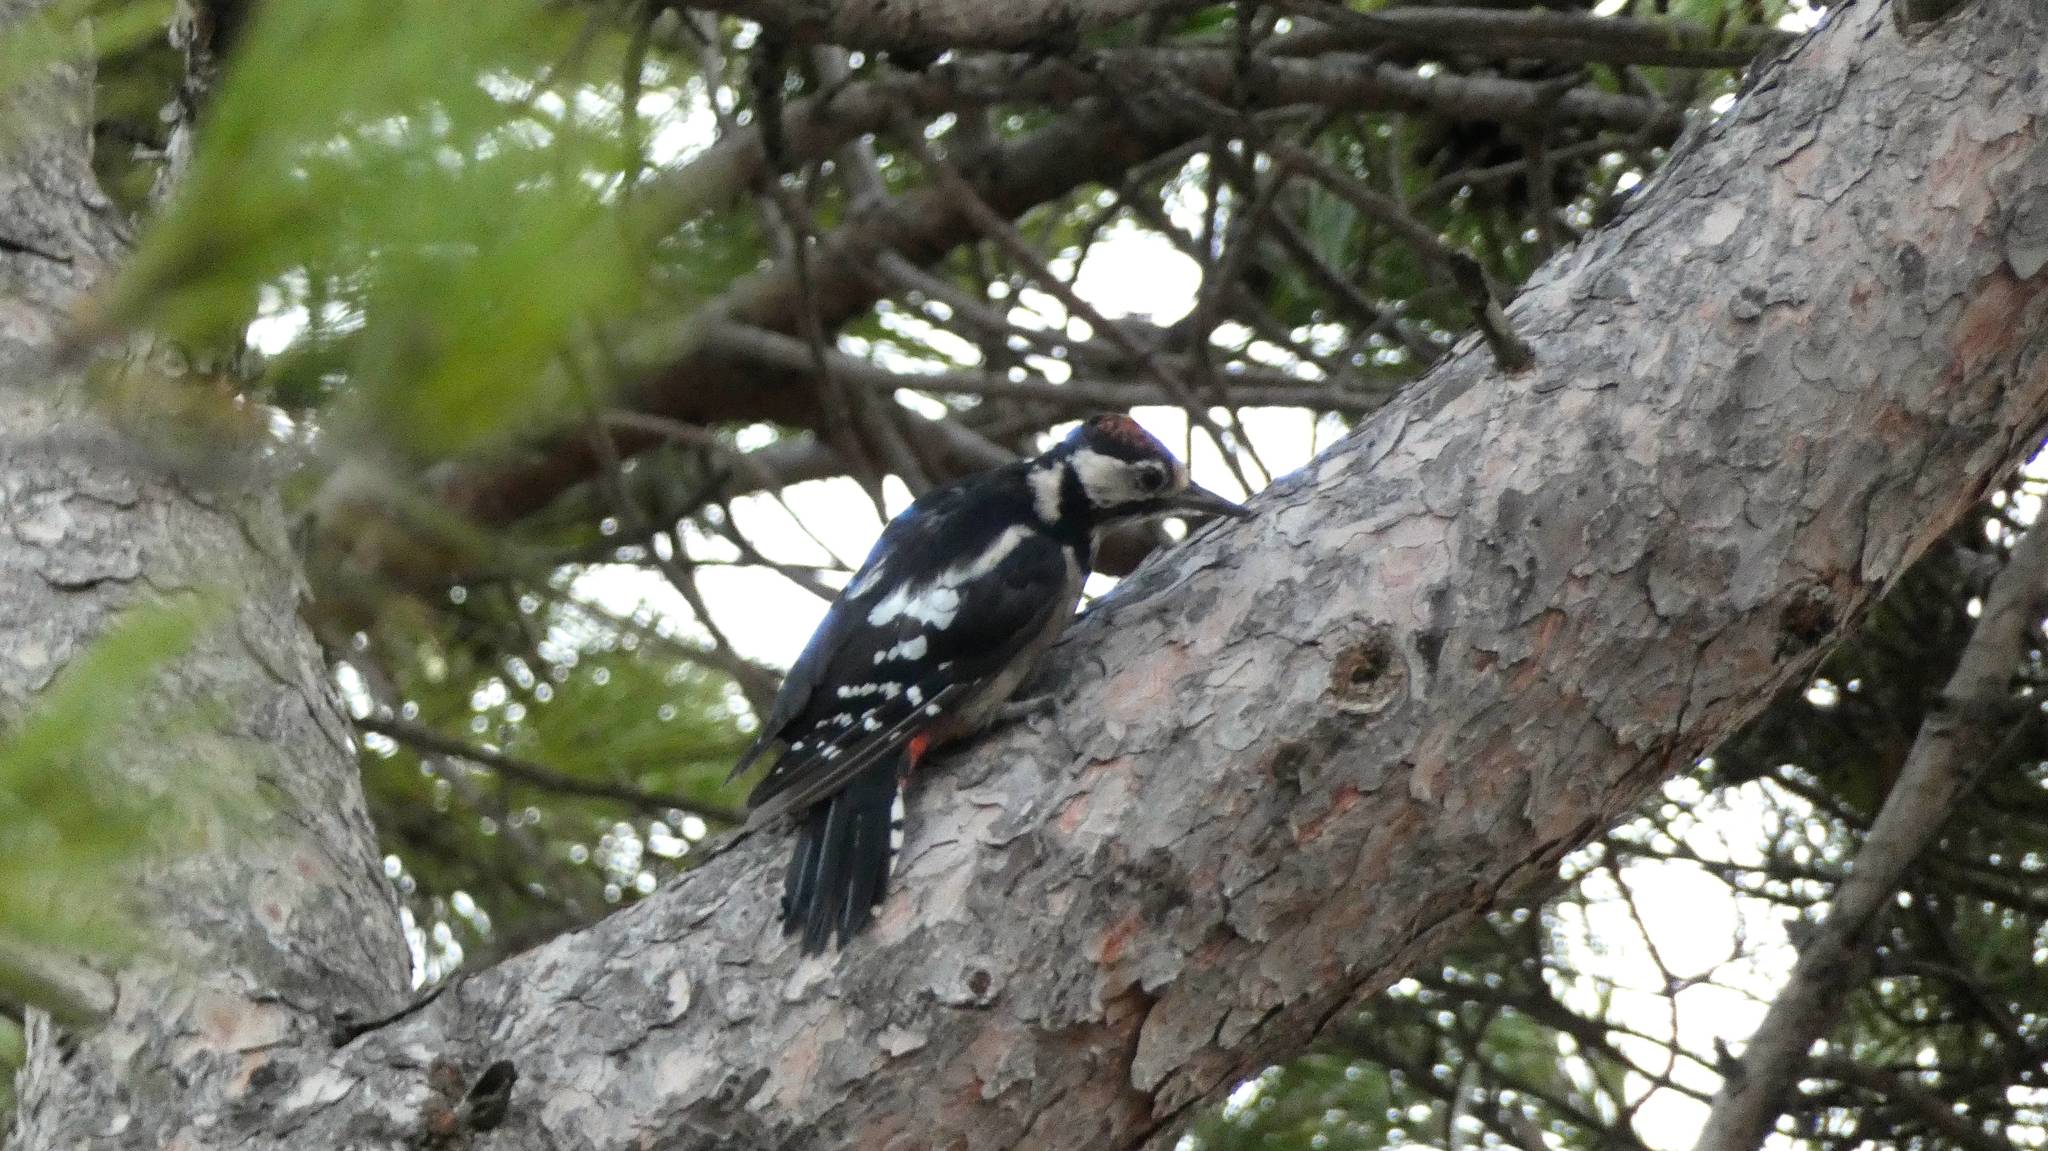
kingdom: Animalia
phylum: Chordata
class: Aves
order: Piciformes
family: Picidae
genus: Dendrocopos
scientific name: Dendrocopos major
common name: Great spotted woodpecker
